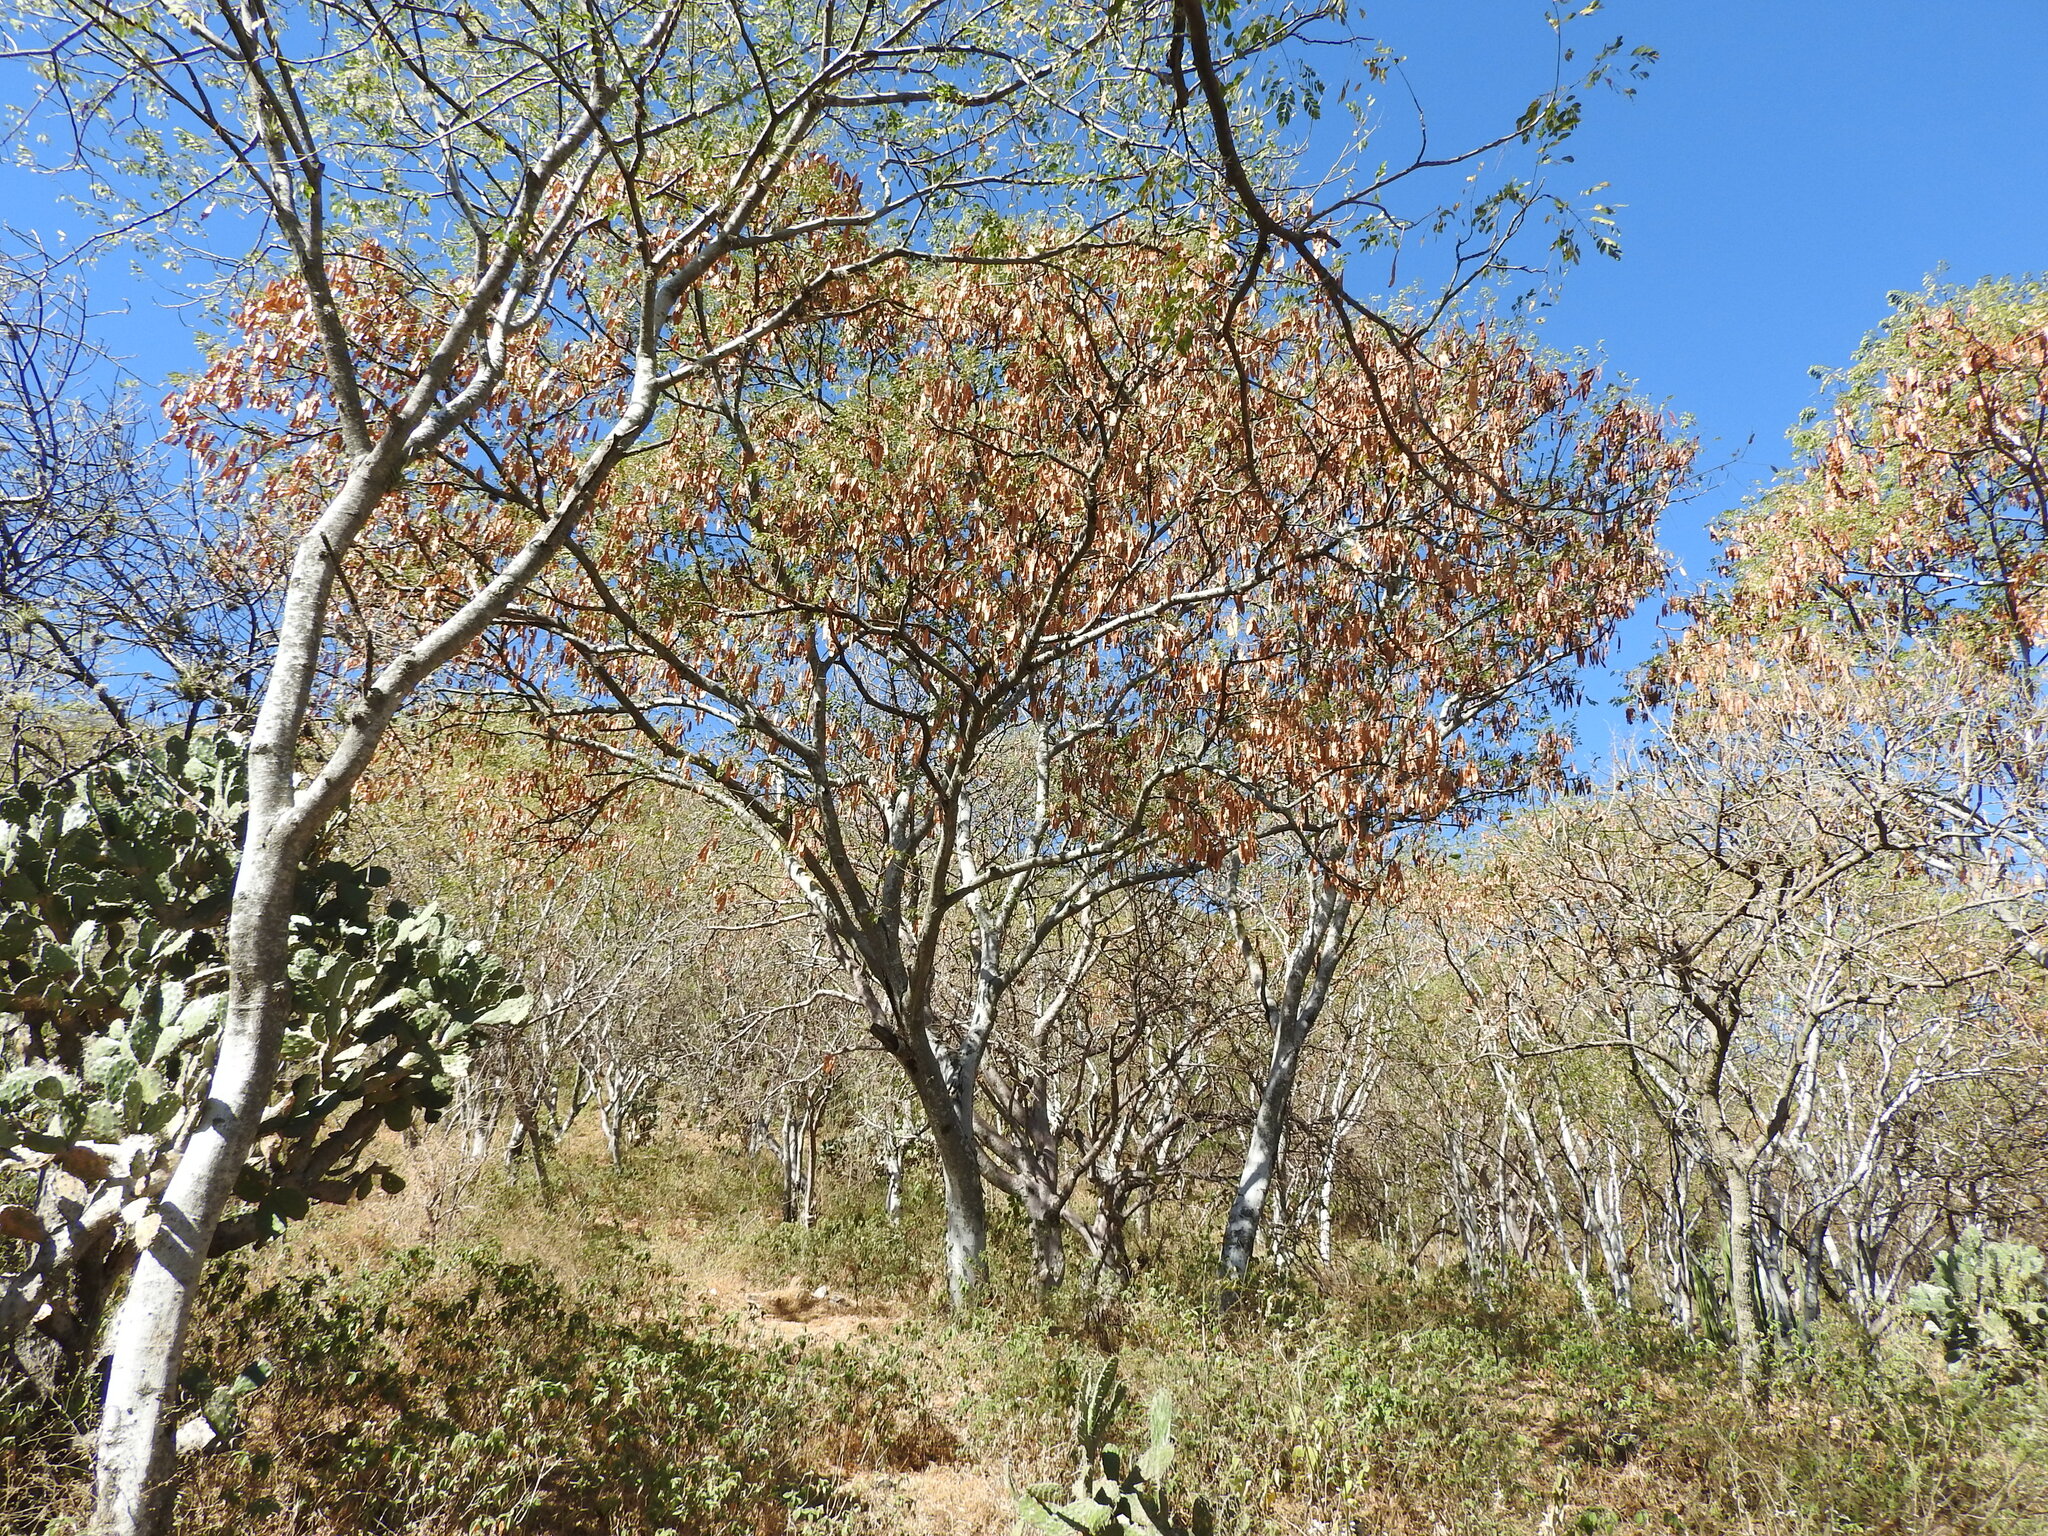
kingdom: Plantae
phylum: Tracheophyta
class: Magnoliopsida
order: Fabales
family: Fabaceae
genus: Albizia
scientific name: Albizia occidentalis
